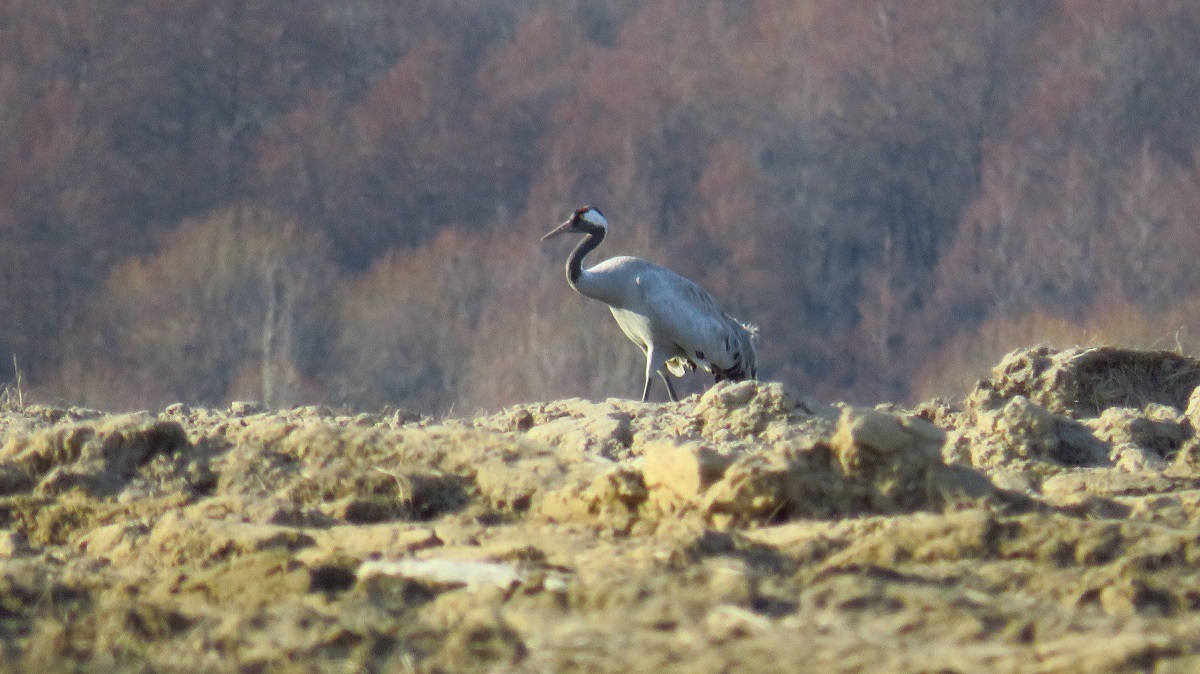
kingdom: Animalia
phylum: Chordata
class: Aves
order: Gruiformes
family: Gruidae
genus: Grus
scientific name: Grus grus
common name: Common crane
